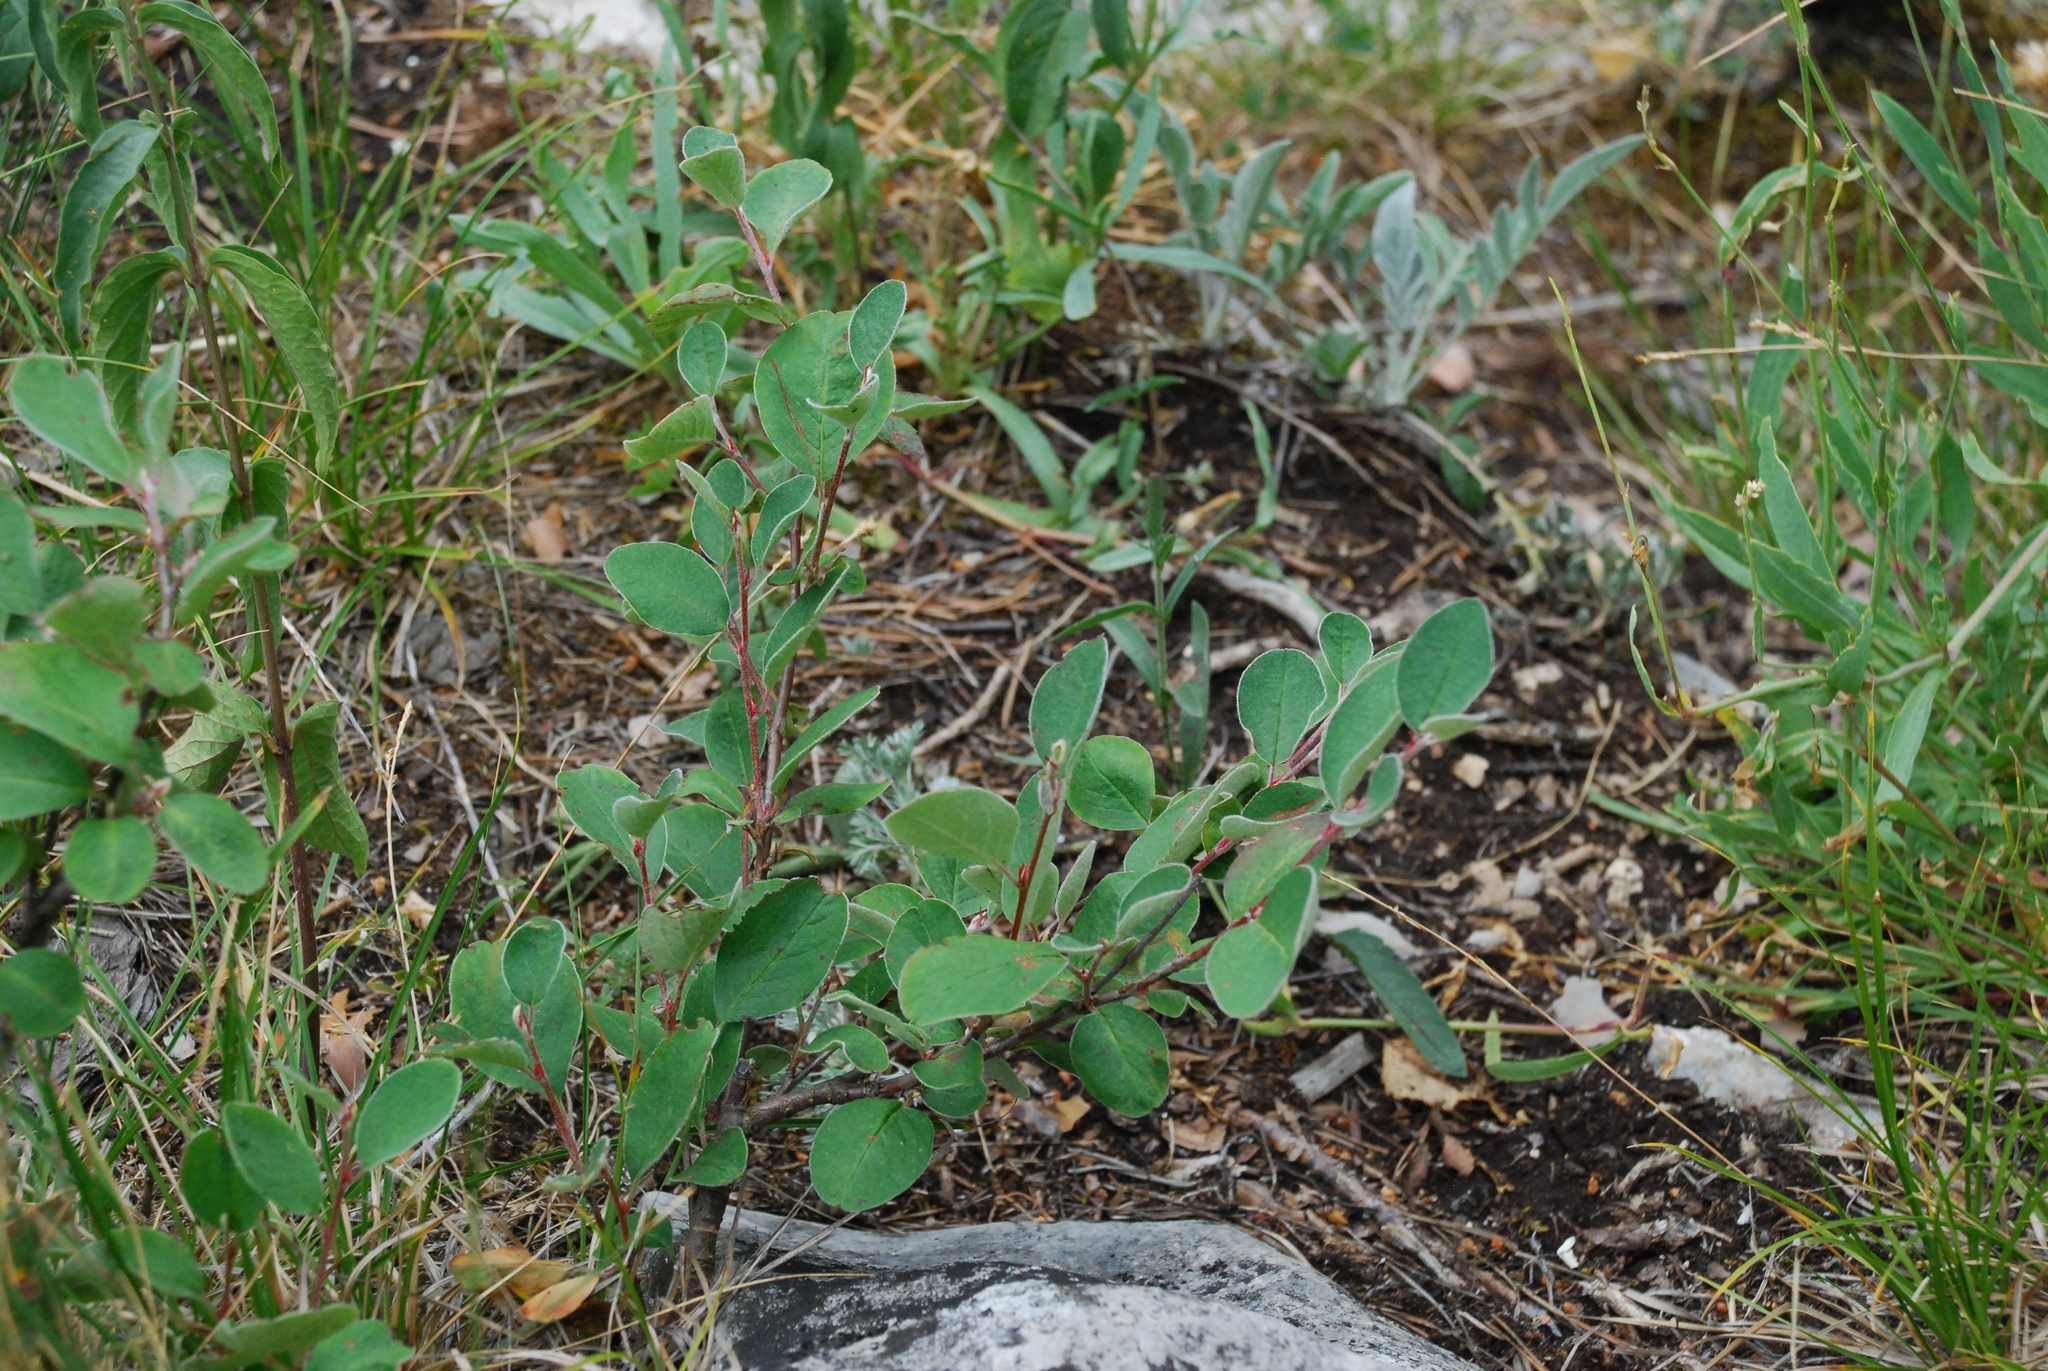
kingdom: Plantae
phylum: Tracheophyta
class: Magnoliopsida
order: Rosales
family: Rosaceae
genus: Cotoneaster
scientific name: Cotoneaster melanocarpus
